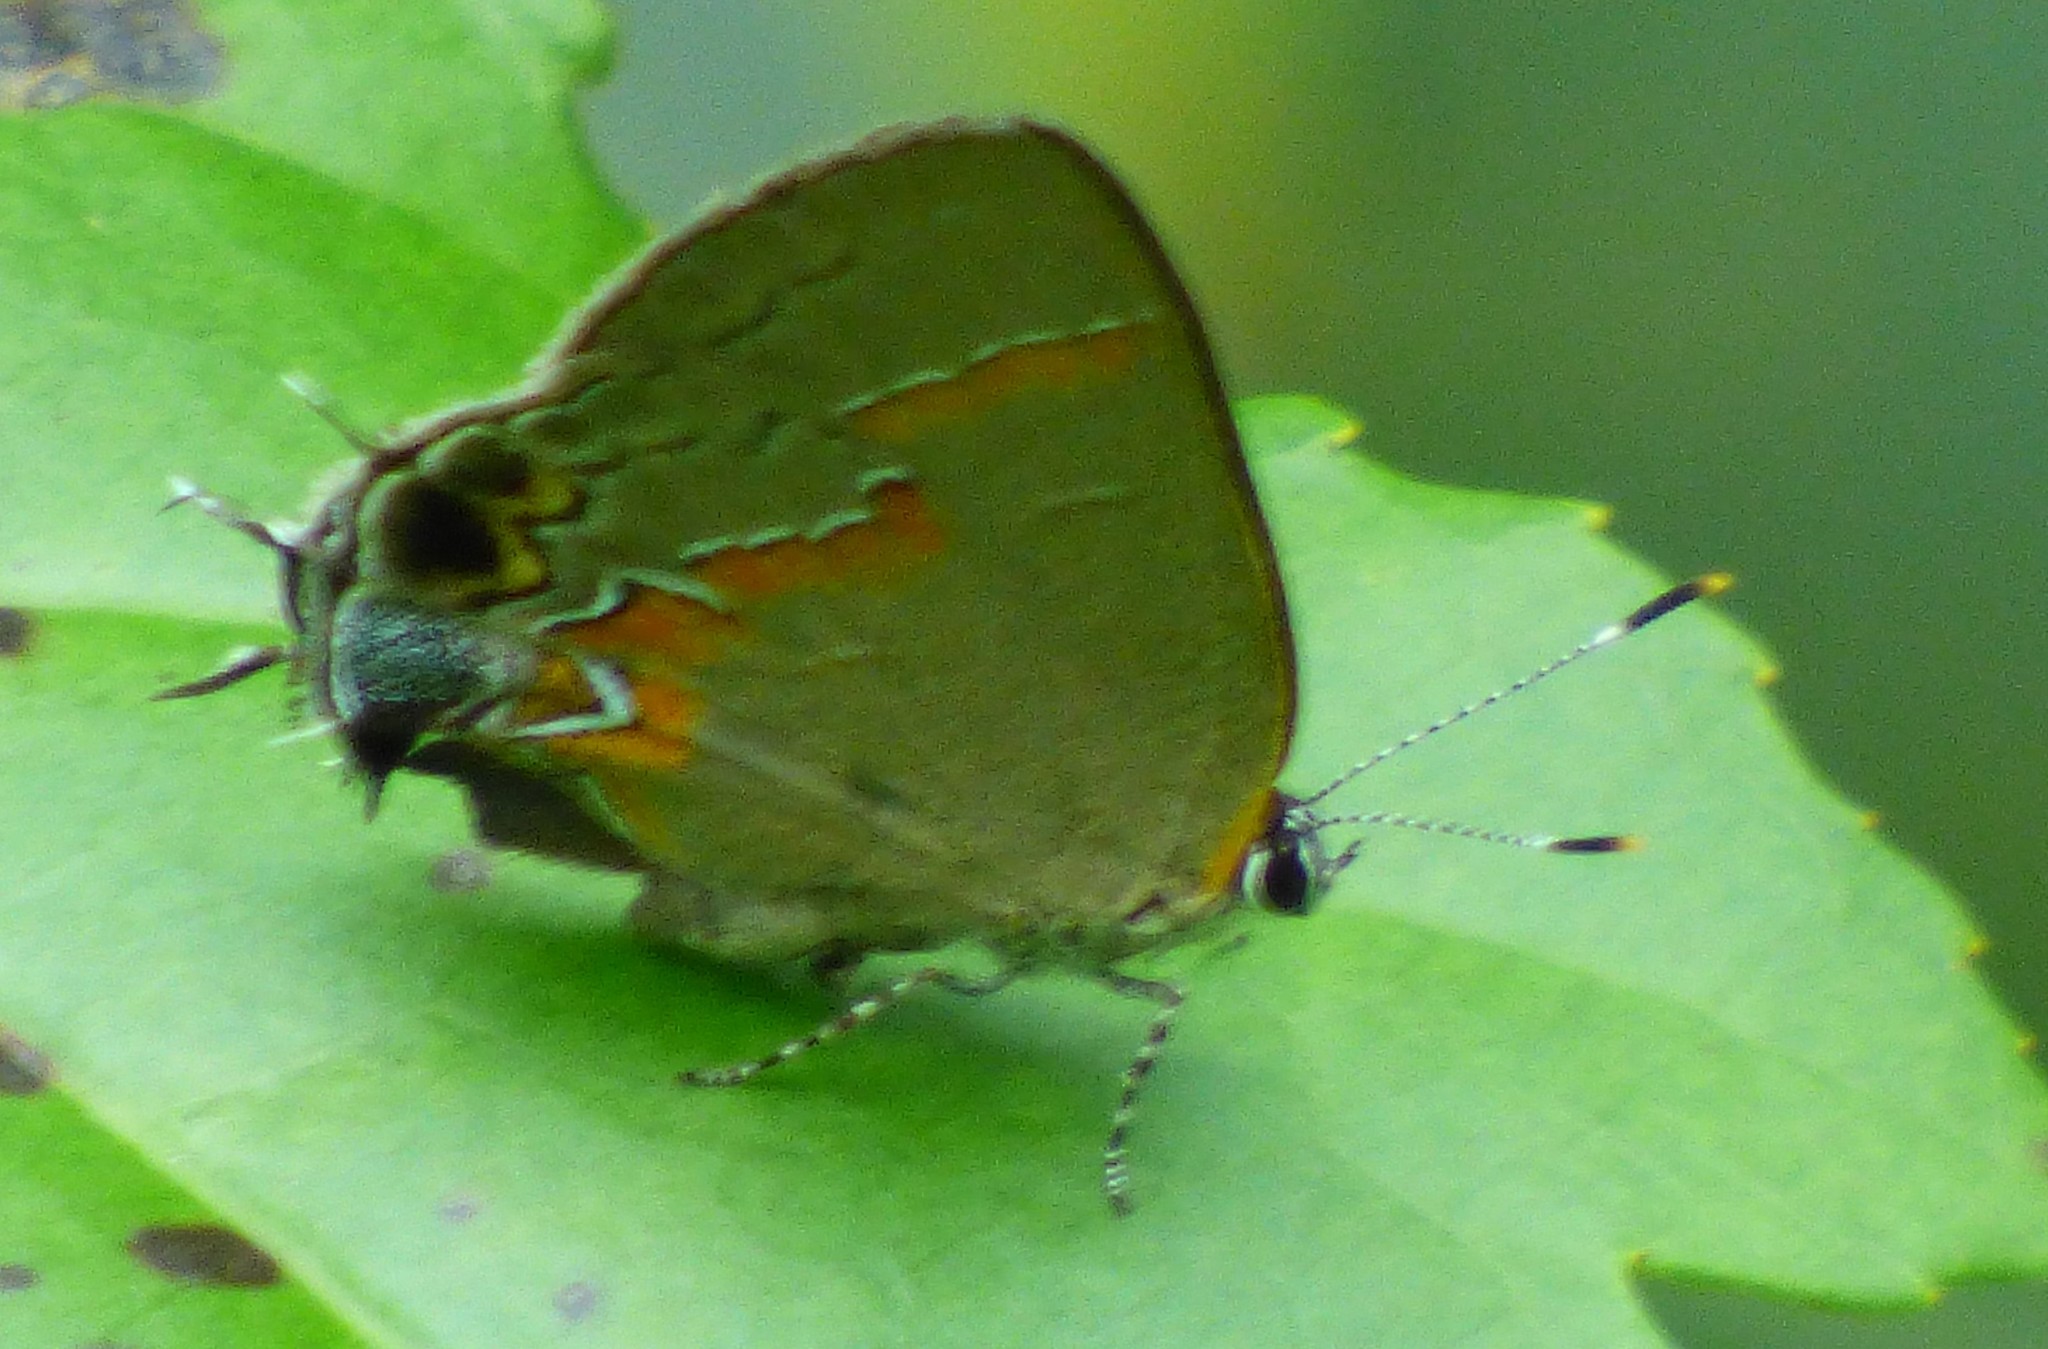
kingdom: Animalia
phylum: Arthropoda
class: Insecta
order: Lepidoptera
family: Lycaenidae
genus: Calycopis
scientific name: Calycopis cecrops
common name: Red-banded hairstreak
